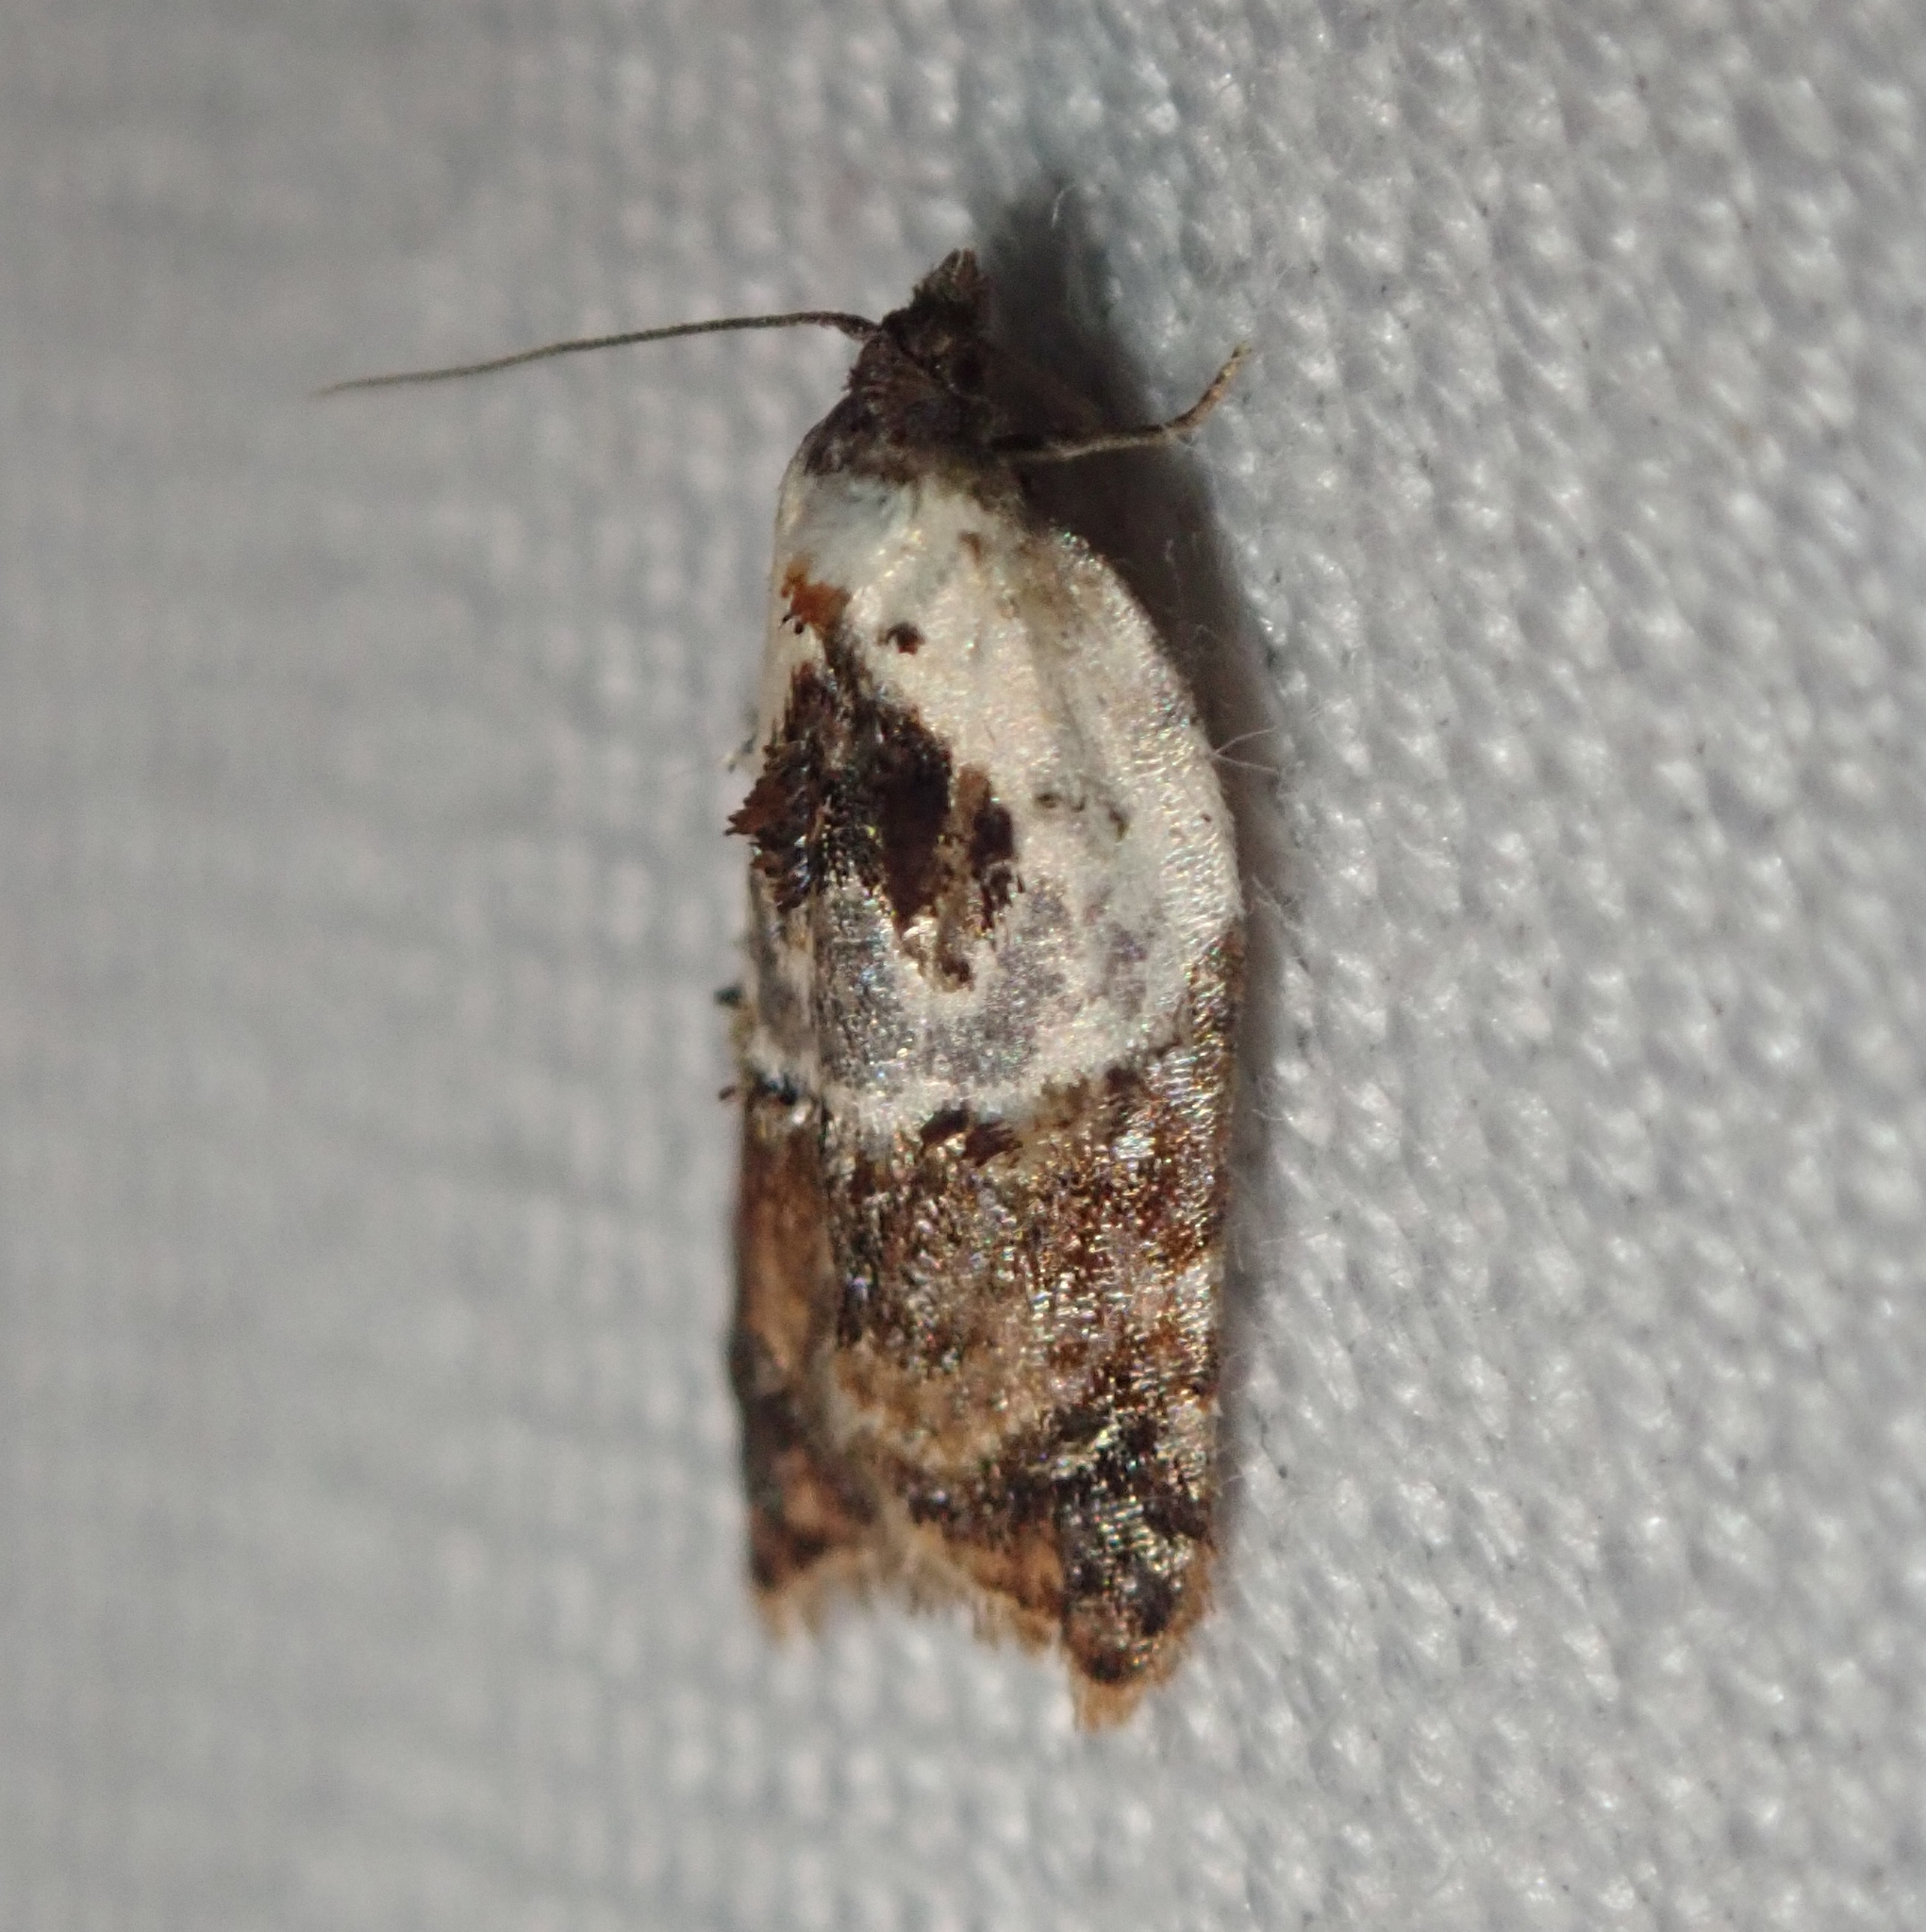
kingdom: Animalia
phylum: Arthropoda
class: Insecta
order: Lepidoptera
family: Tortricidae
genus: Acleris
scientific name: Acleris variegana
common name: Garden rose tortrix
